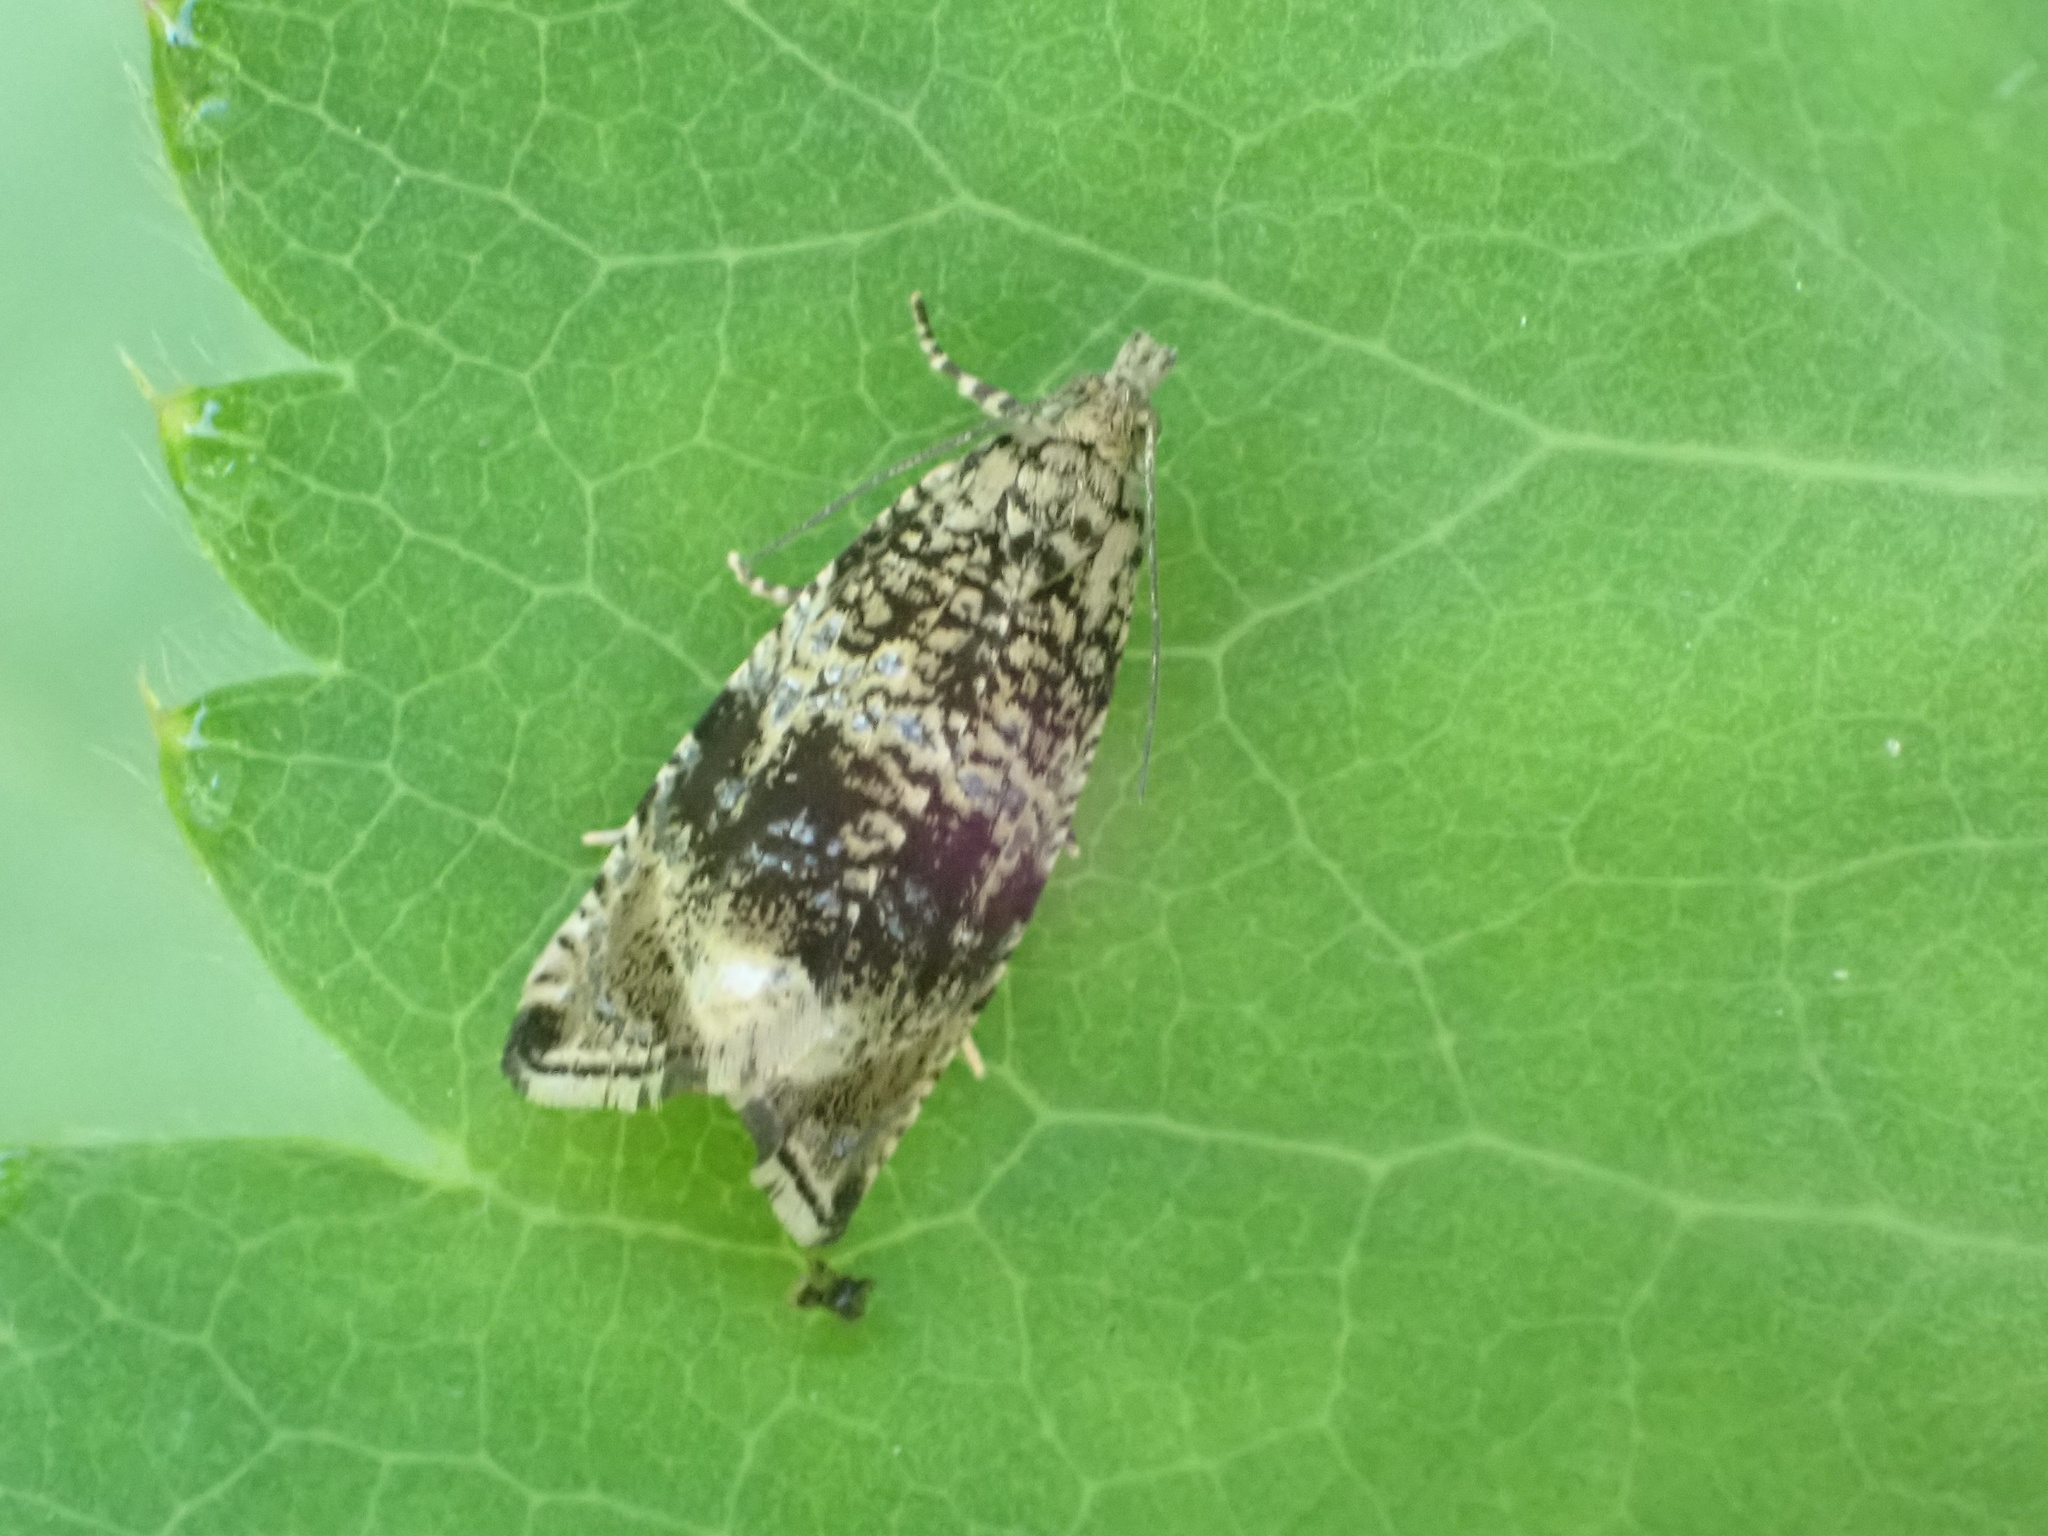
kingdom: Animalia
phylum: Arthropoda
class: Insecta
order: Lepidoptera
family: Tortricidae
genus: Syricoris
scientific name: Syricoris lacunana
